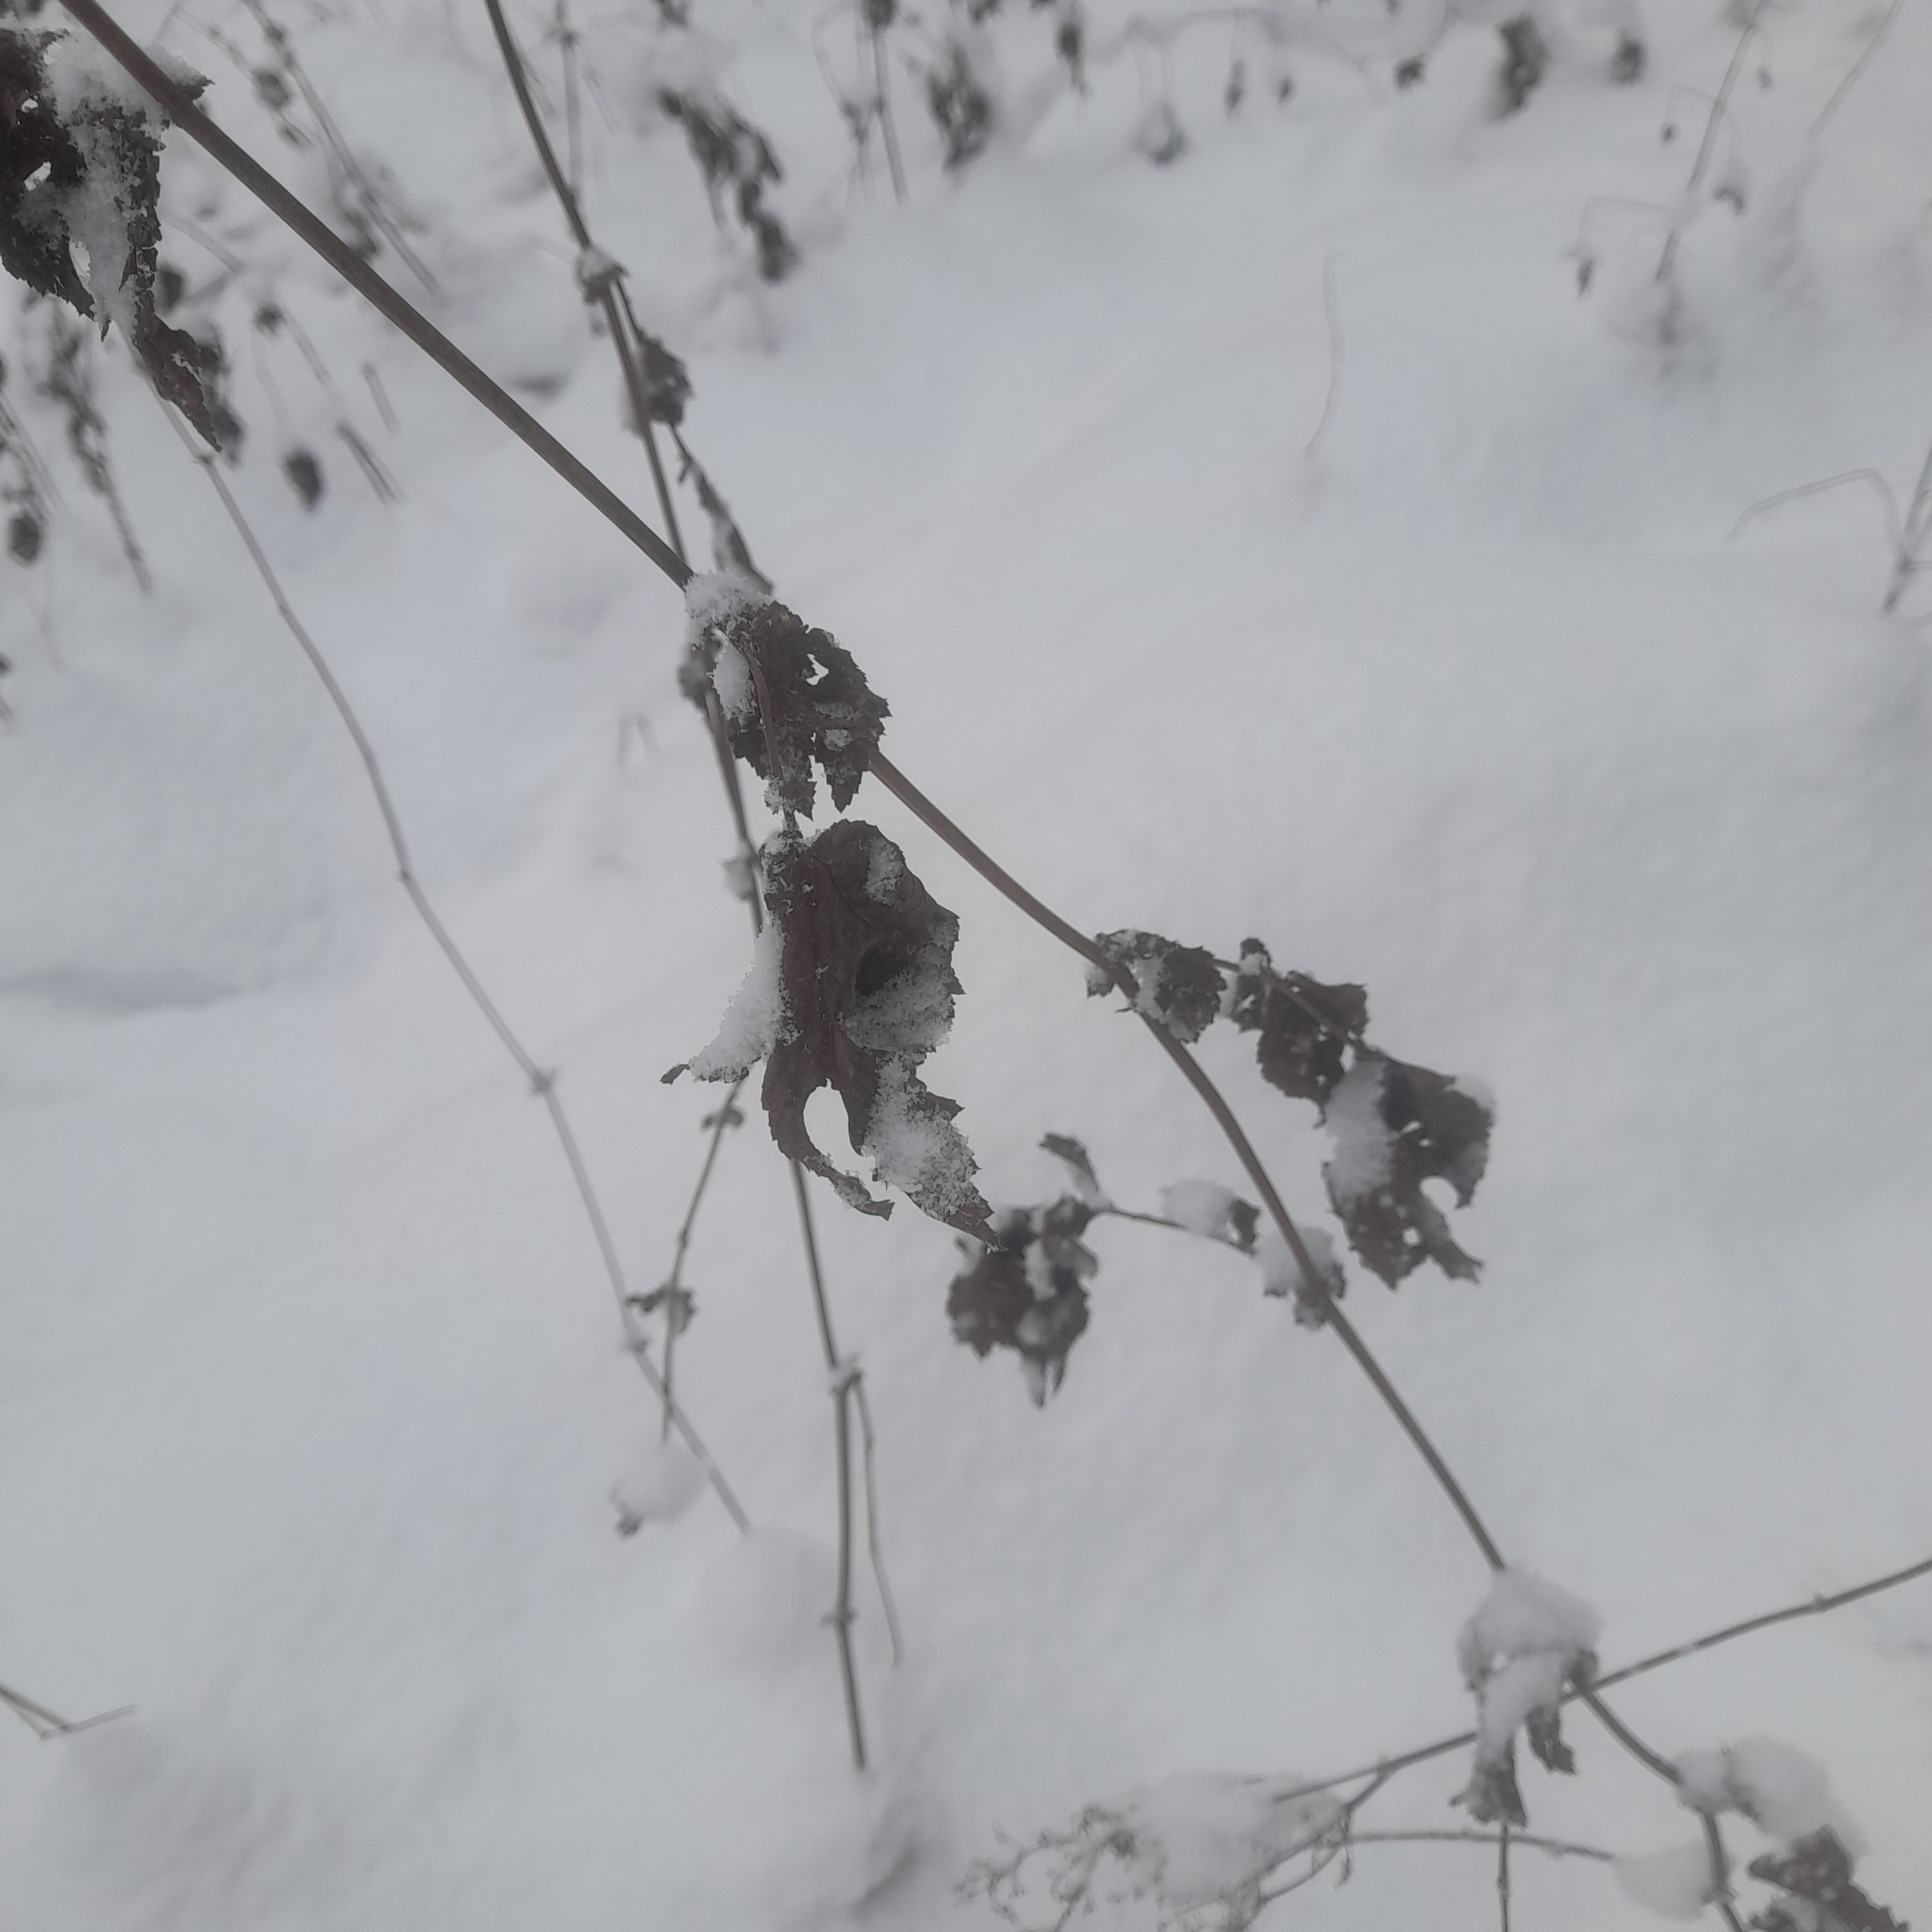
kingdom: Plantae
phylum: Tracheophyta
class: Magnoliopsida
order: Rosales
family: Rosaceae
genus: Filipendula
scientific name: Filipendula ulmaria
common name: Meadowsweet
